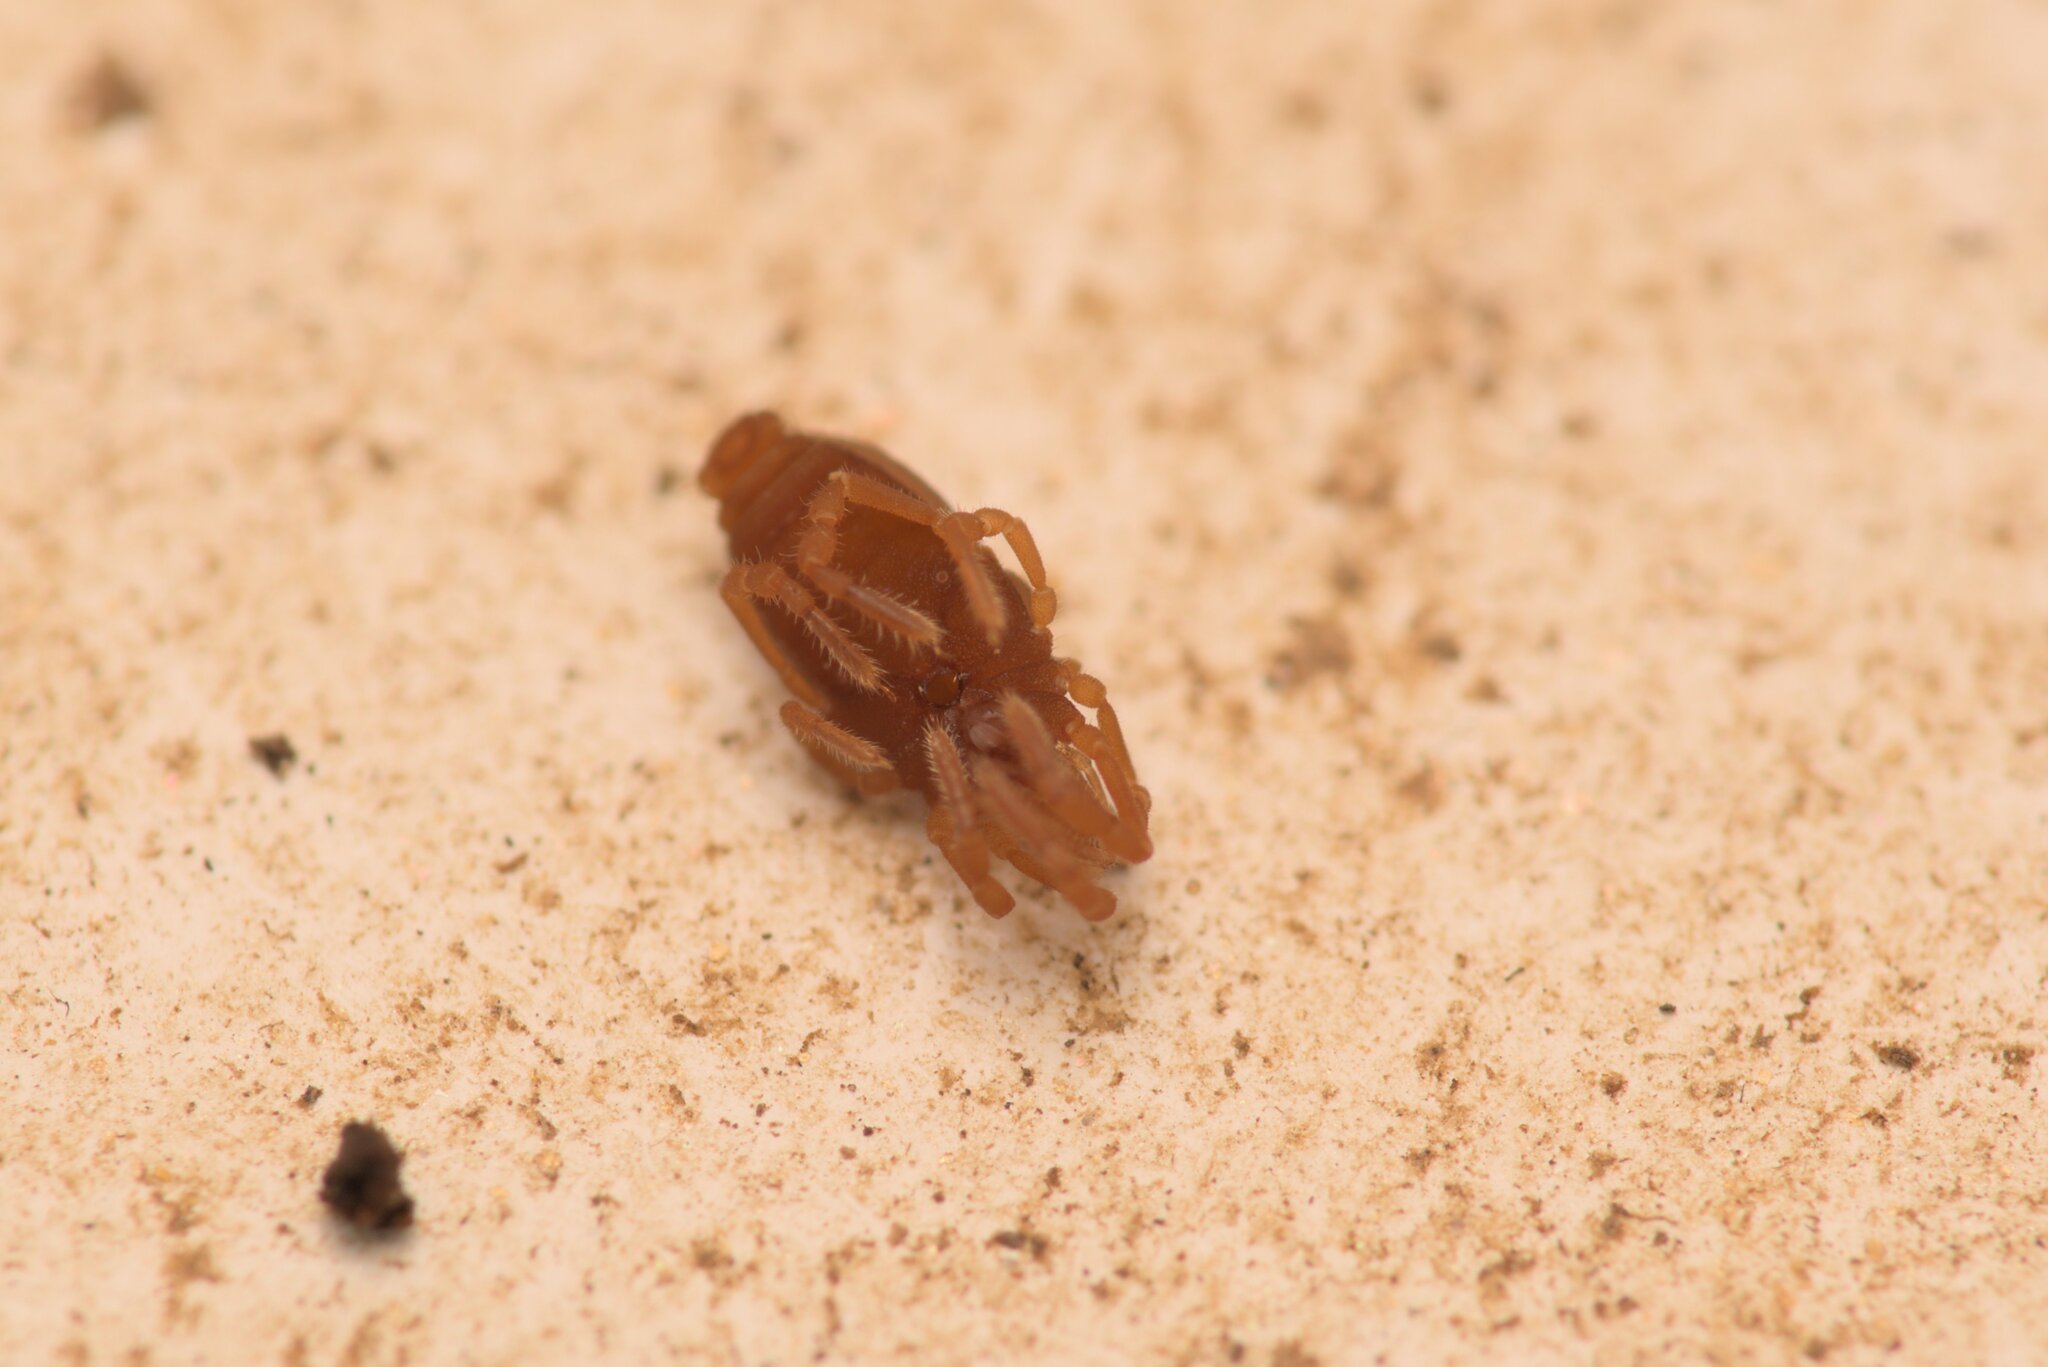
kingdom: Animalia
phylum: Arthropoda
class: Arachnida
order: Opiliones
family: Sironidae
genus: Siro
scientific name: Siro rubens
